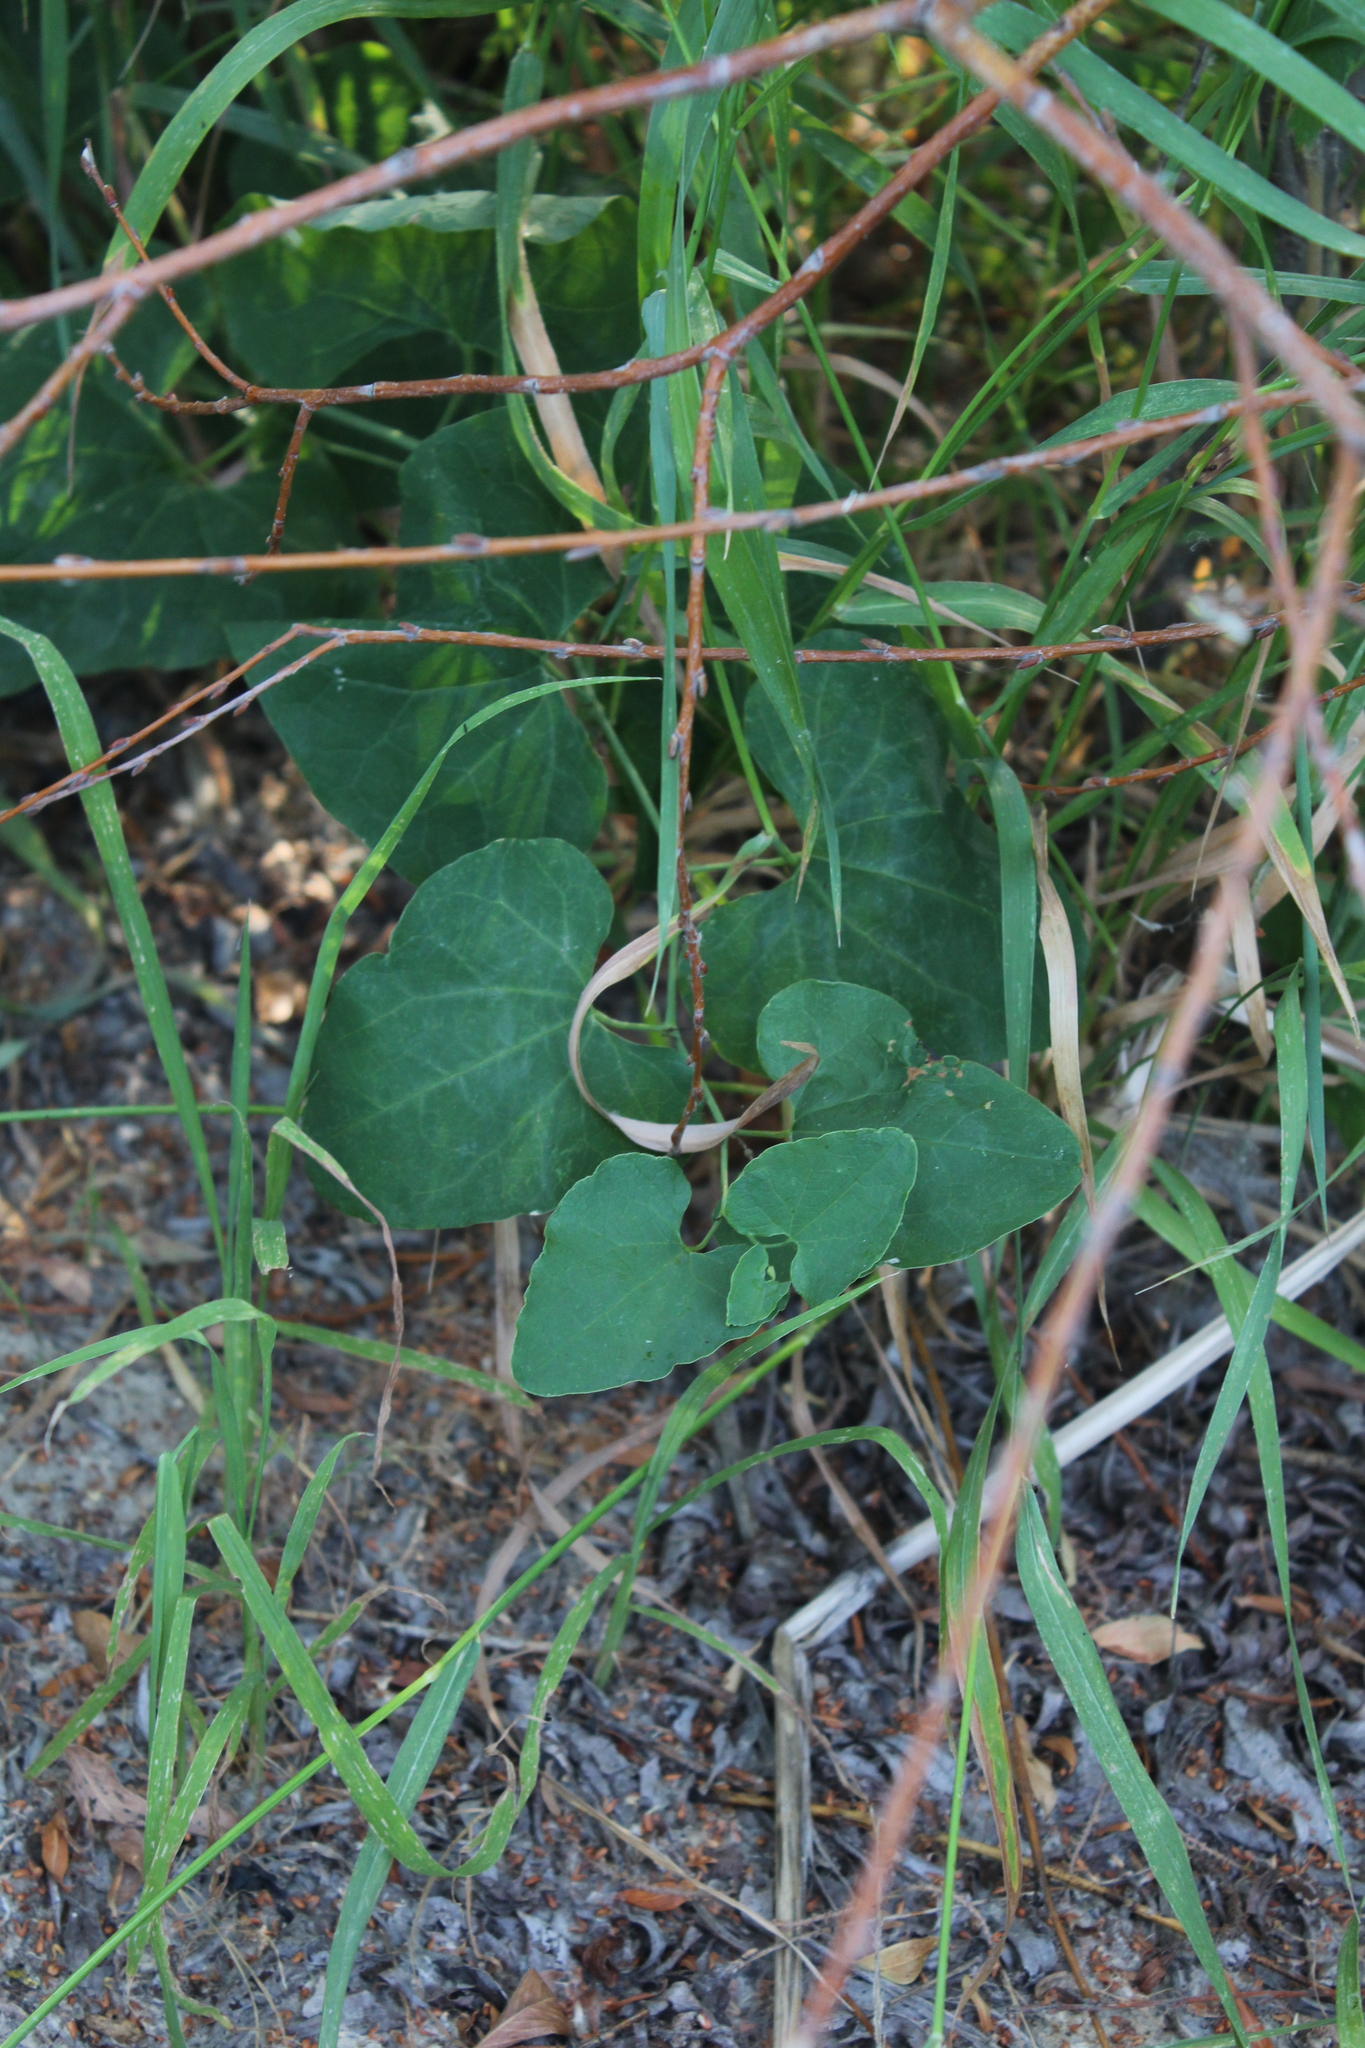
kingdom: Plantae
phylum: Tracheophyta
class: Magnoliopsida
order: Piperales
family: Aristolochiaceae
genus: Aristolochia
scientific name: Aristolochia clematitis
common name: Birthwort
